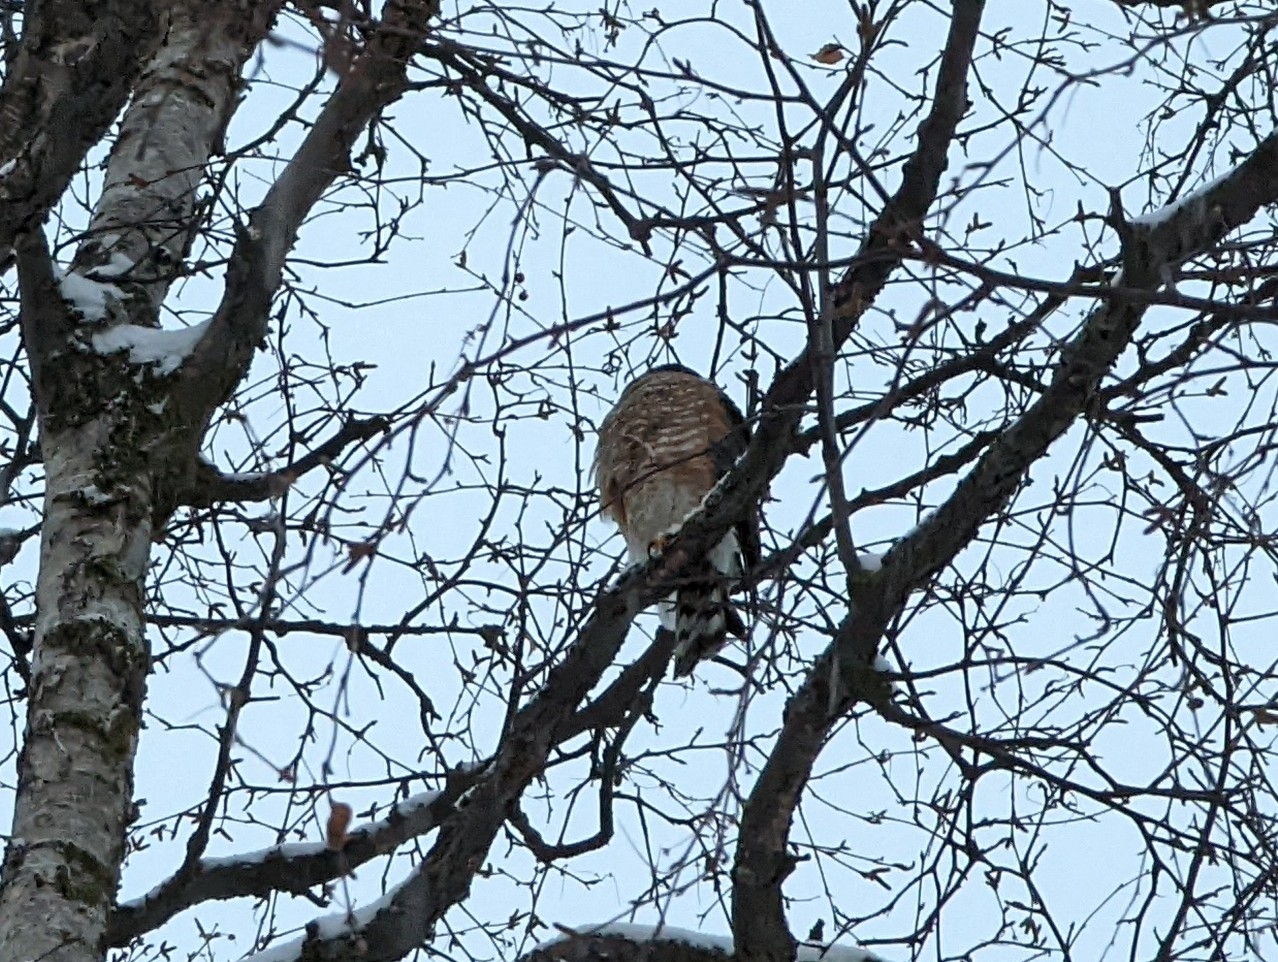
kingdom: Animalia
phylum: Chordata
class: Aves
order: Accipitriformes
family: Accipitridae
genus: Accipiter
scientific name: Accipiter striatus
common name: Sharp-shinned hawk
